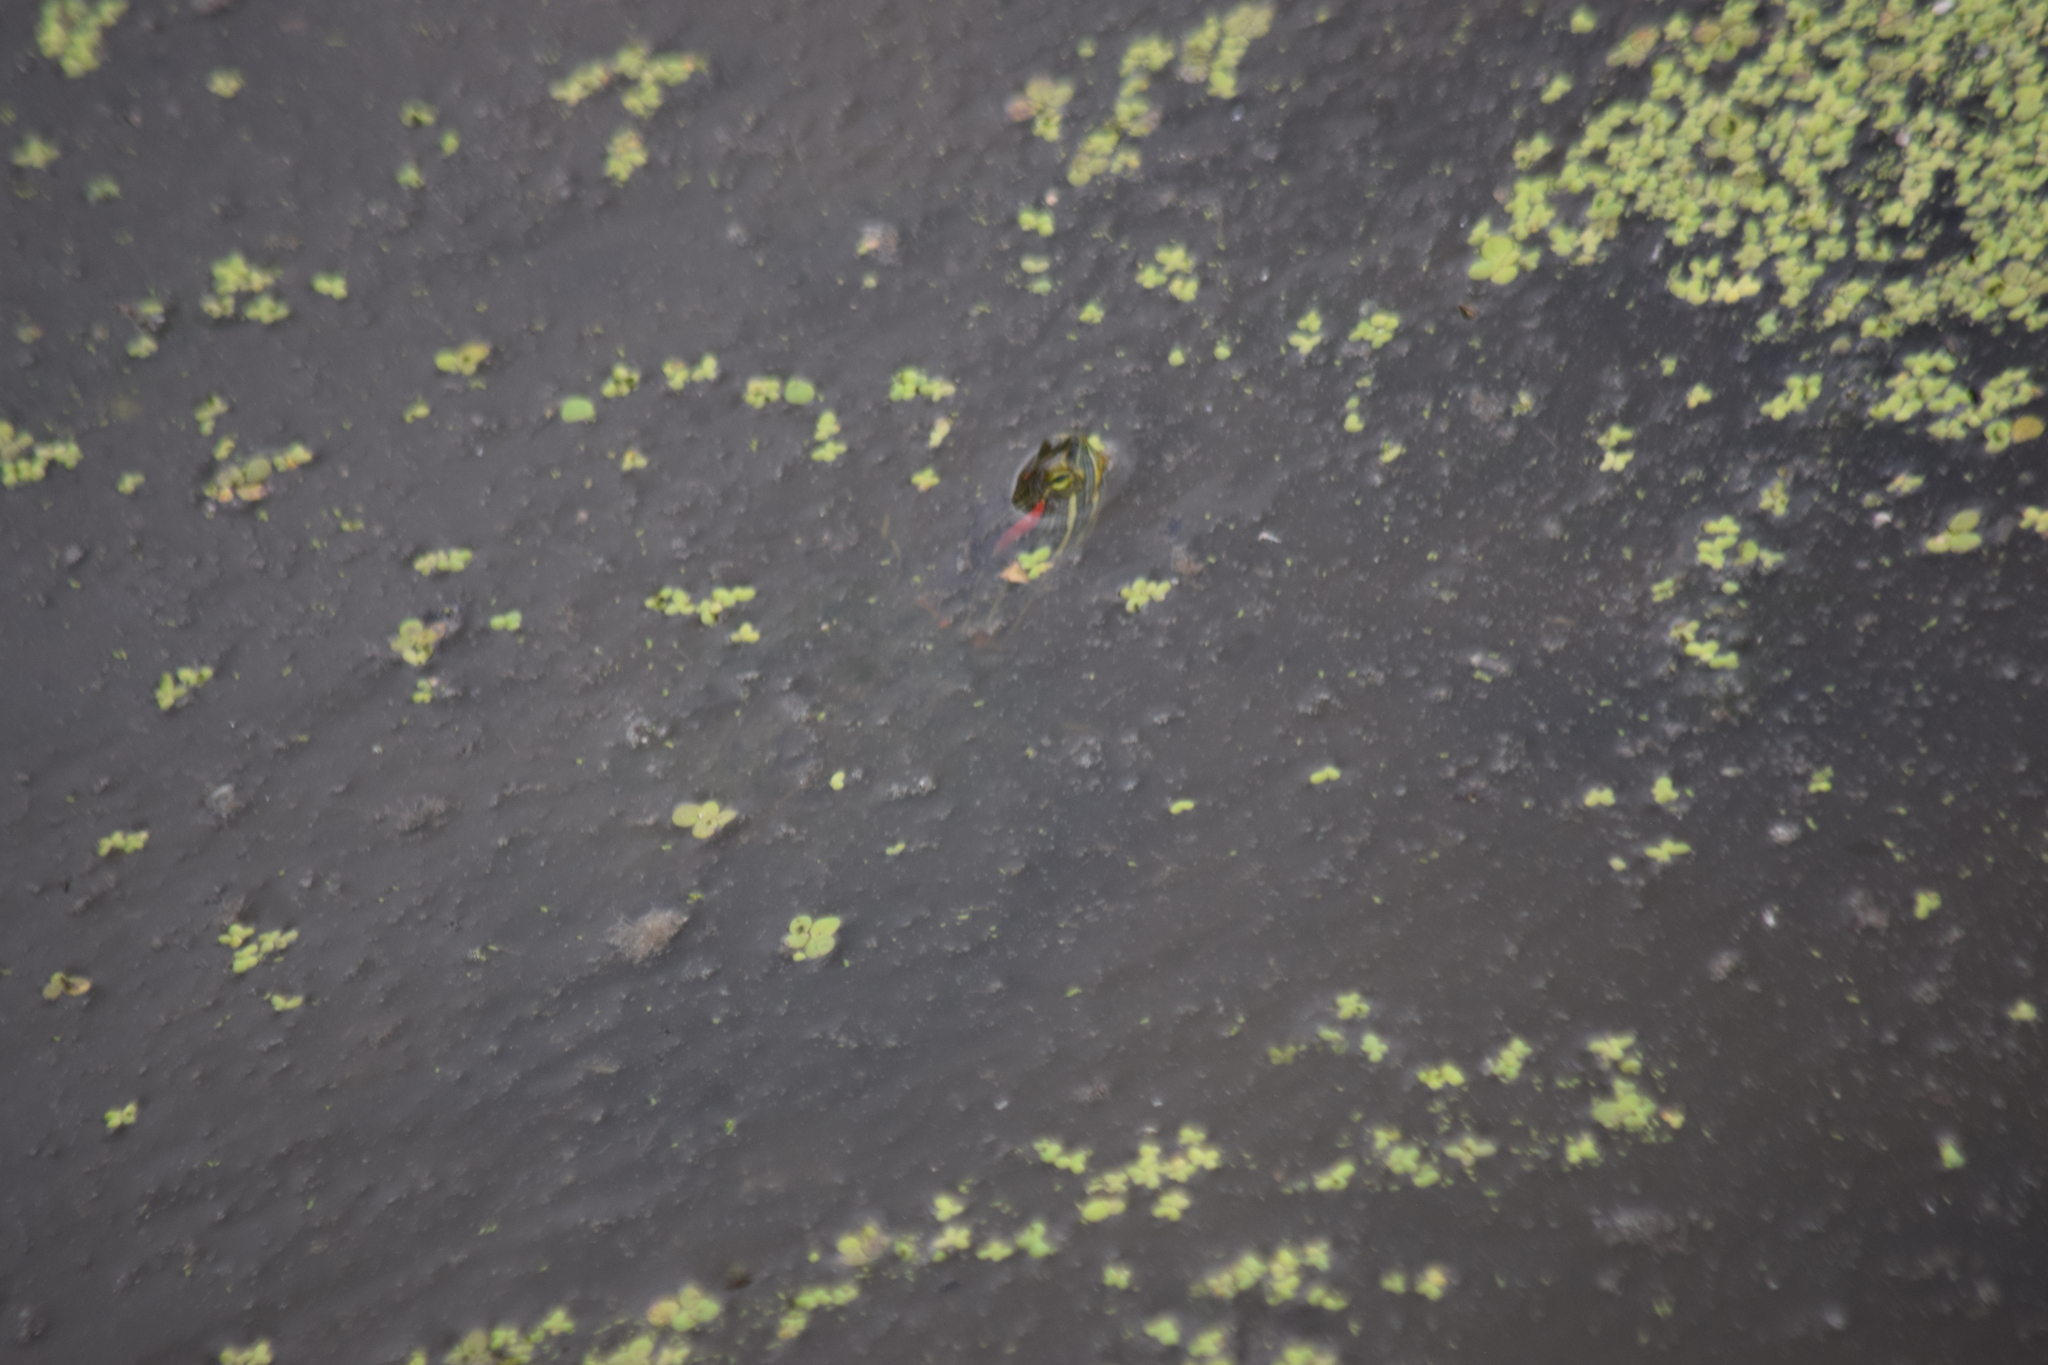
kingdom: Animalia
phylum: Chordata
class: Testudines
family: Emydidae
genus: Trachemys
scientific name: Trachemys scripta
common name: Slider
